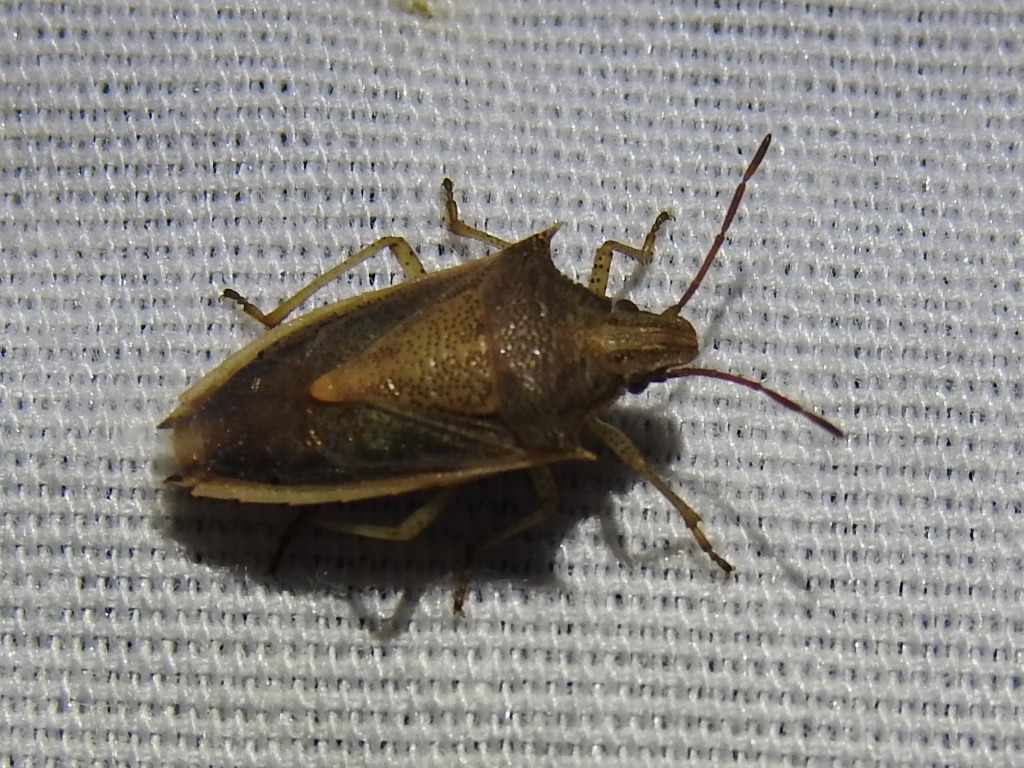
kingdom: Animalia
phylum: Arthropoda
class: Insecta
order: Hemiptera
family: Pentatomidae
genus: Oebalus
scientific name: Oebalus pugnax
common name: Rice stink bug
